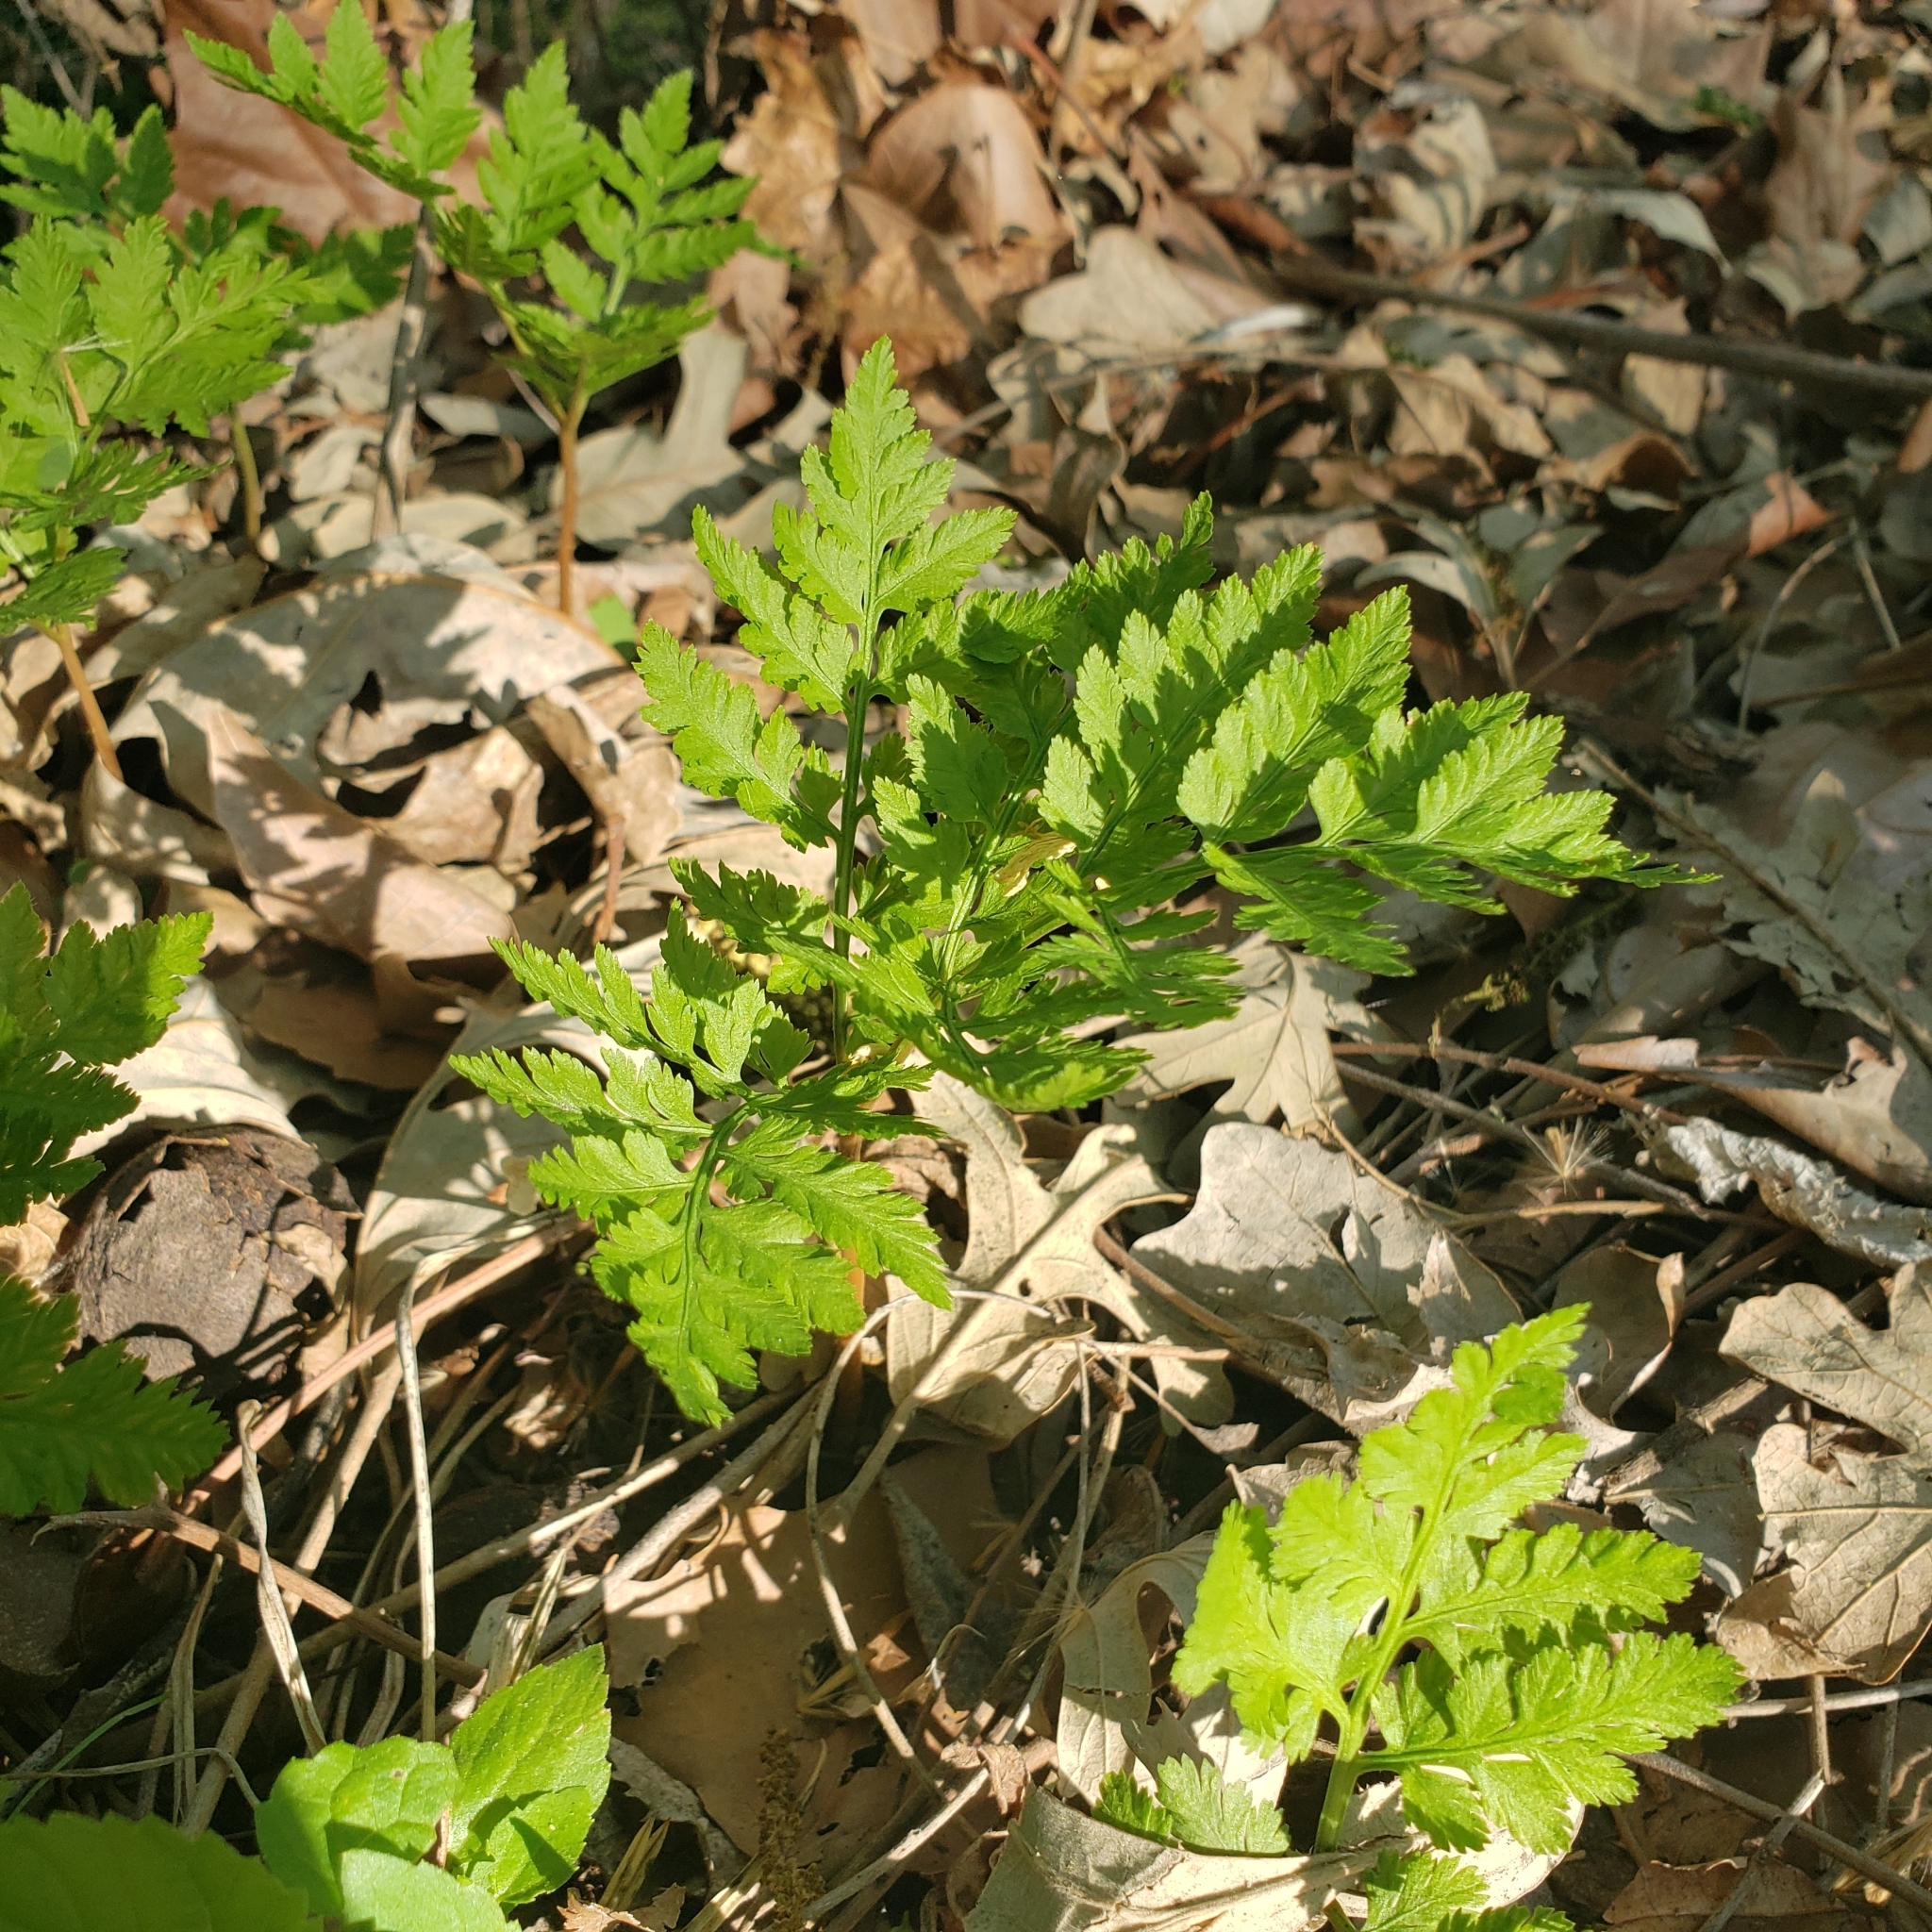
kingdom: Plantae
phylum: Tracheophyta
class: Polypodiopsida
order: Ophioglossales
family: Ophioglossaceae
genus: Botrypus
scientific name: Botrypus virginianus
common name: Common grapefern
